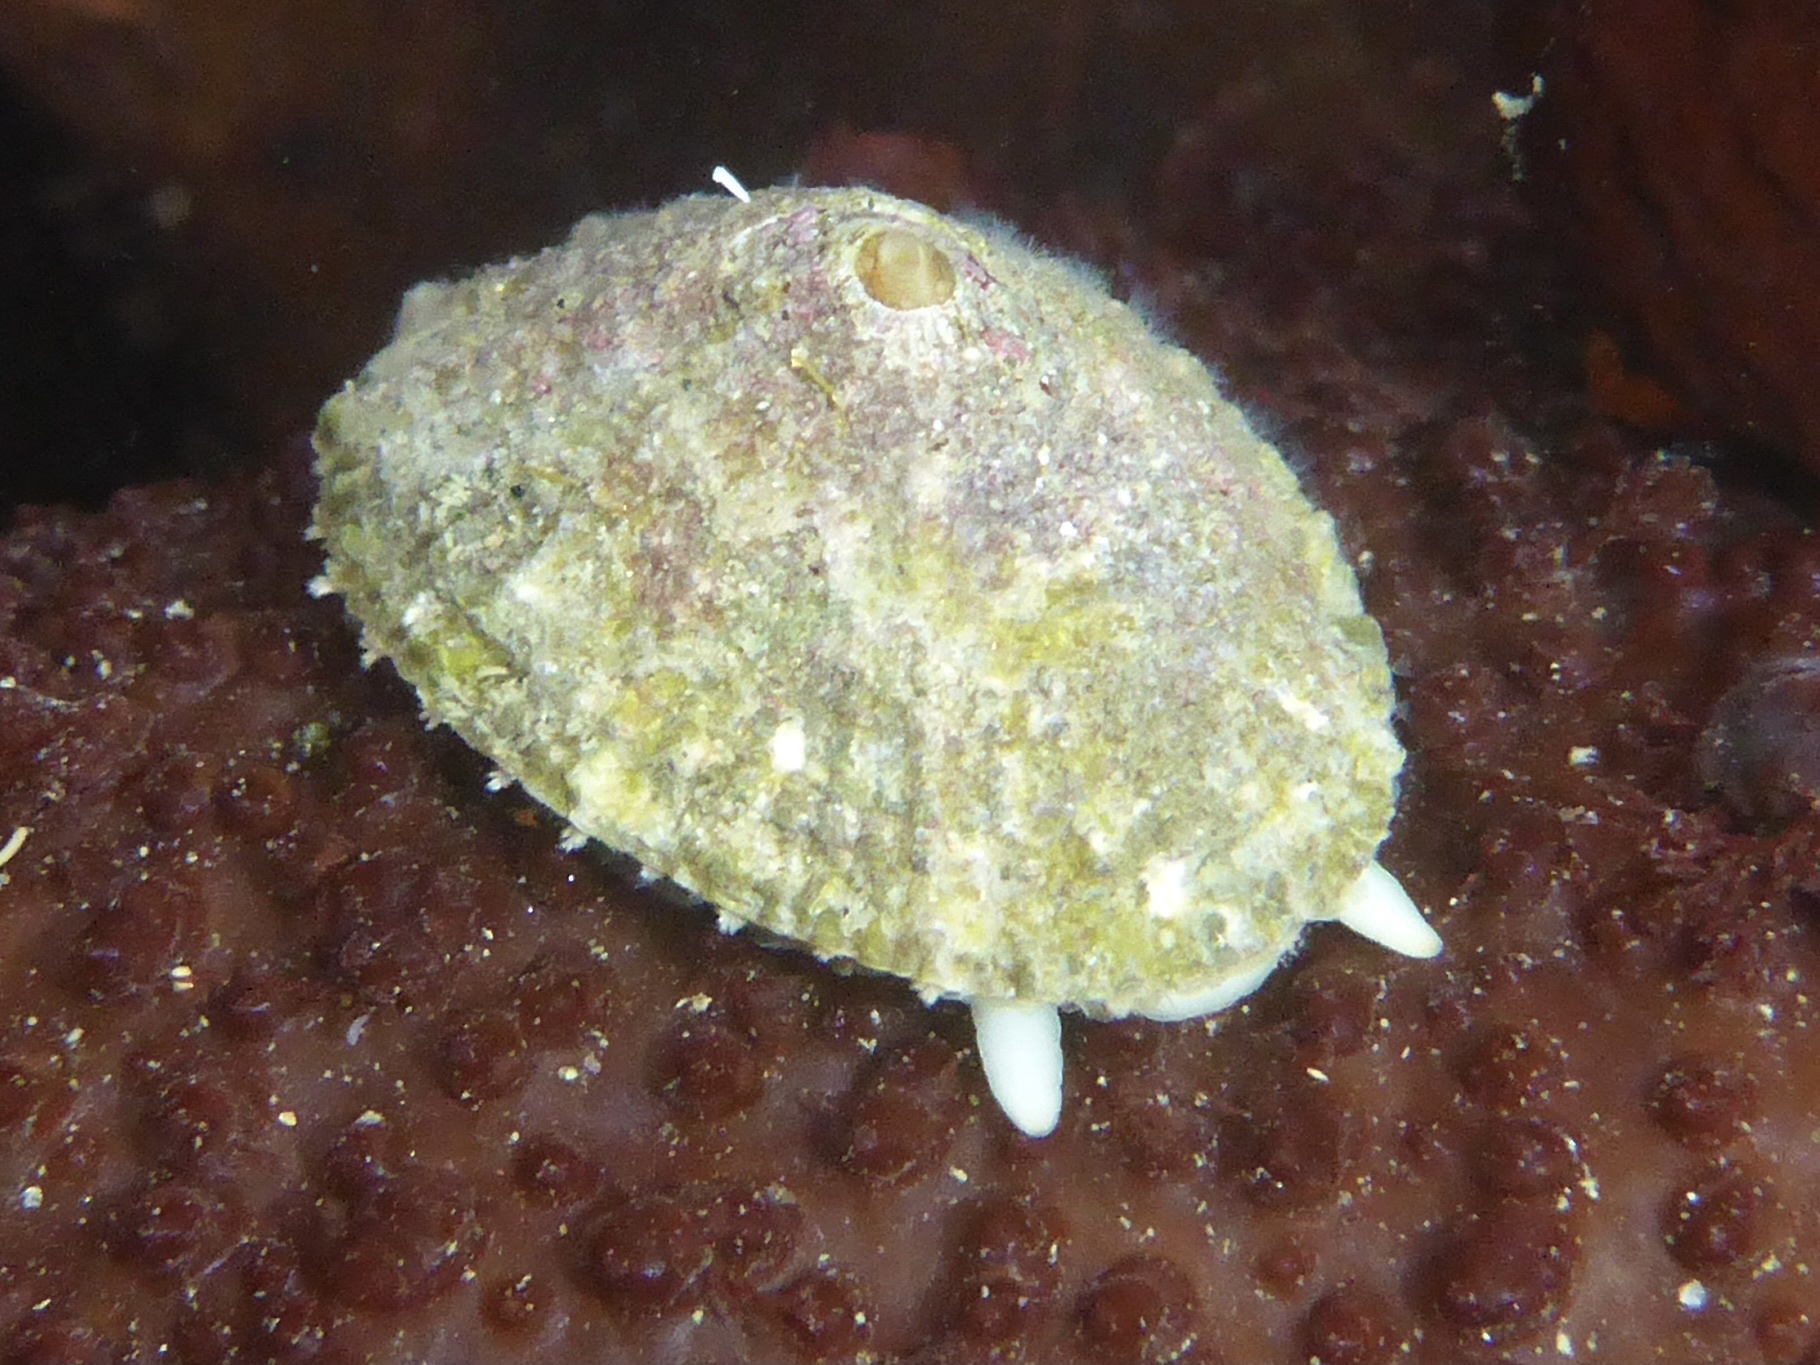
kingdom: Animalia
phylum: Mollusca
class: Gastropoda
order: Lepetellida
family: Fissurellidae
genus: Diodora
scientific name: Diodora aspera
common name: Rough keyhole limpet
